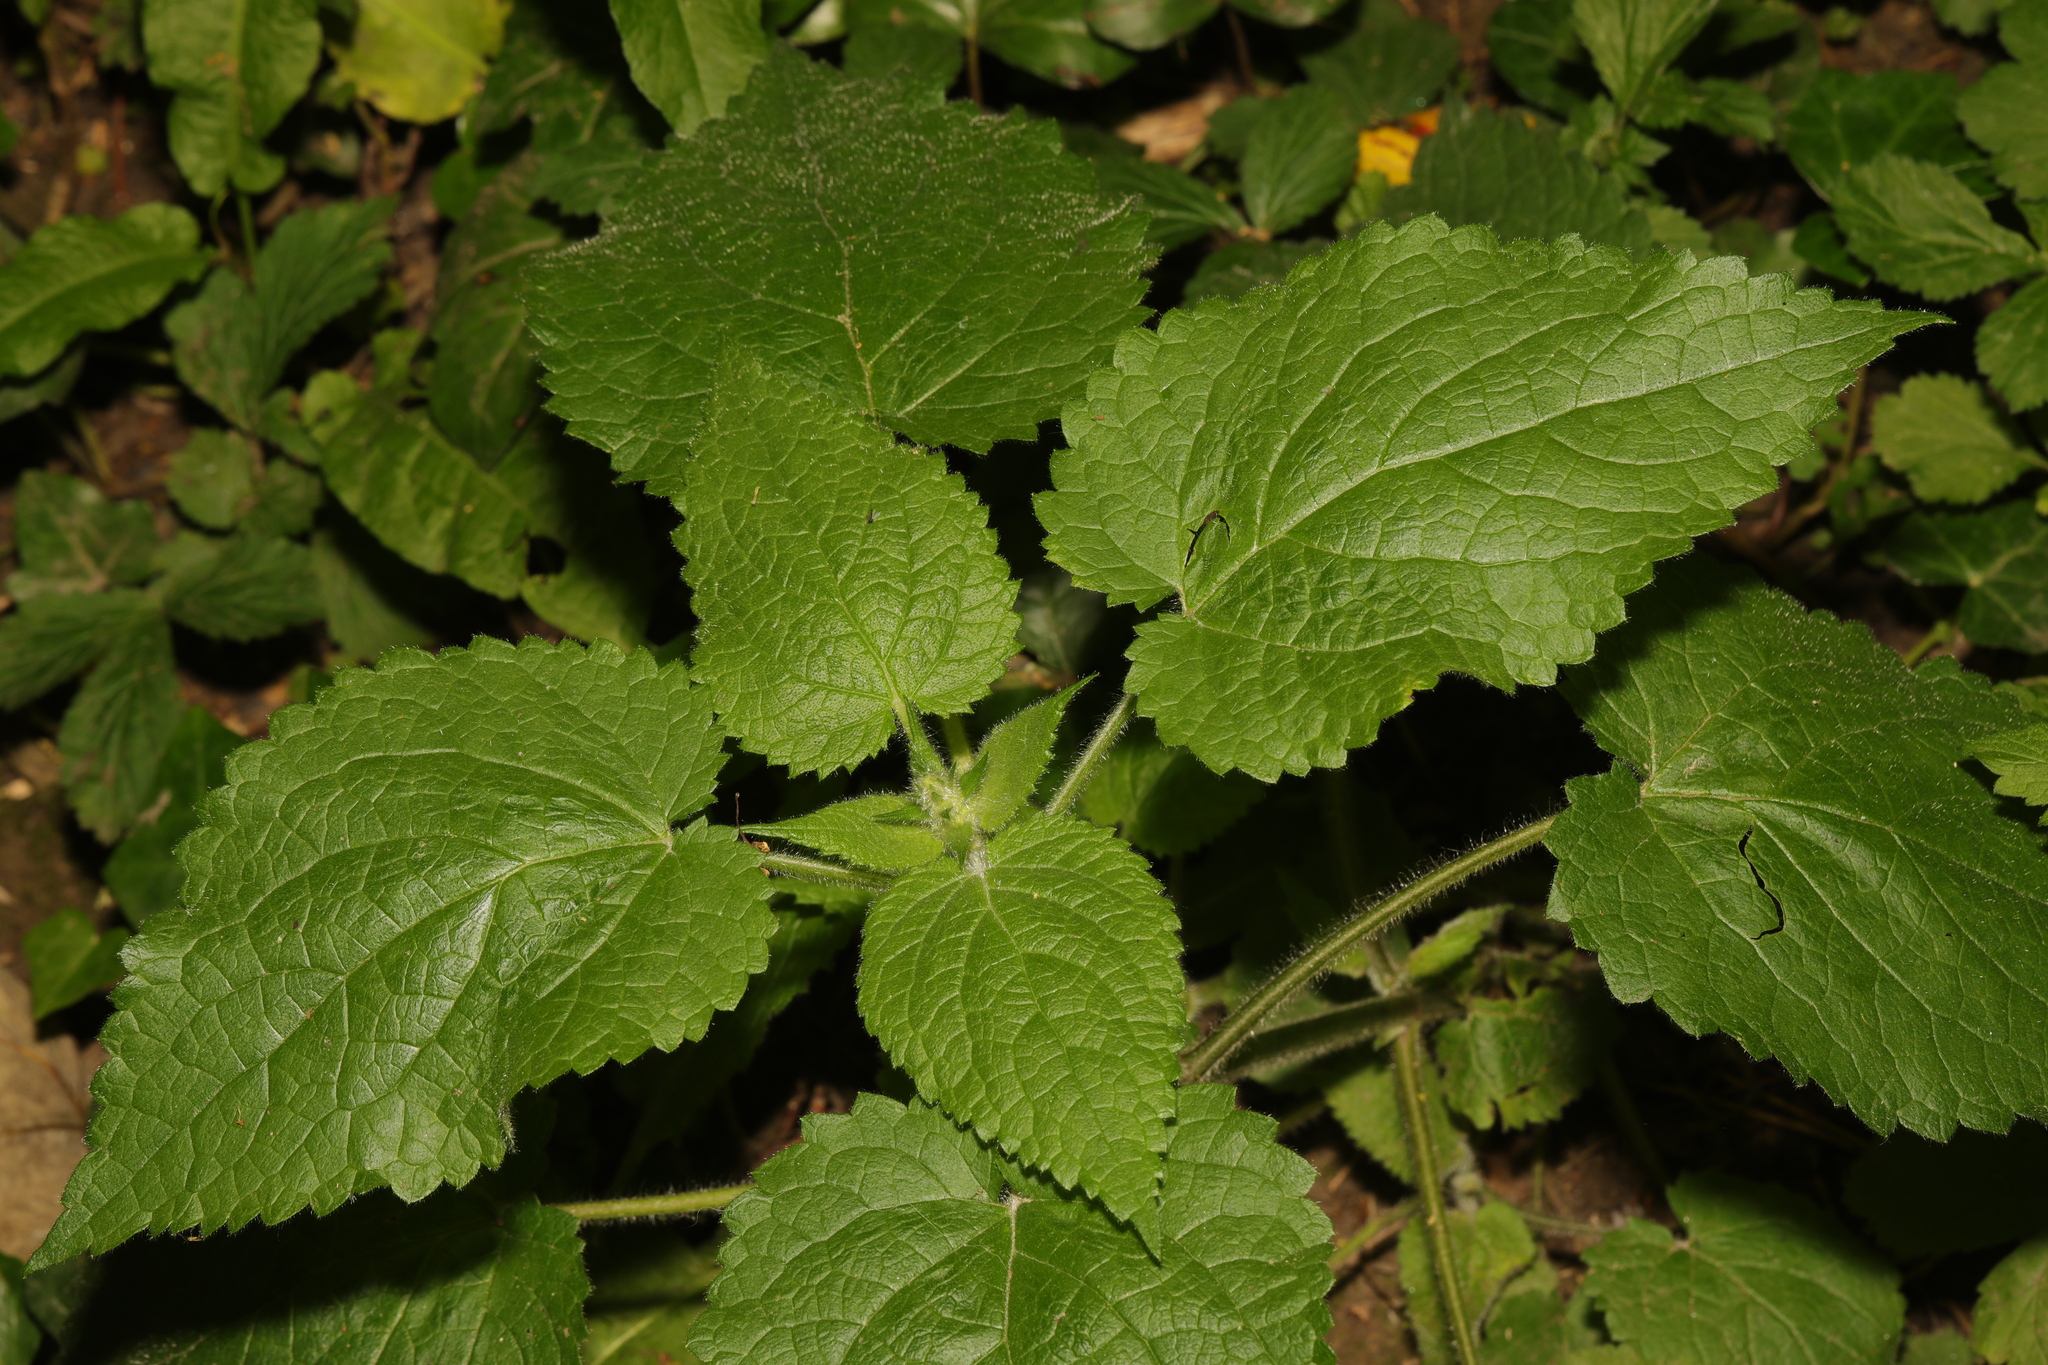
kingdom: Plantae
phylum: Tracheophyta
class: Magnoliopsida
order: Lamiales
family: Lamiaceae
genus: Stachys
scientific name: Stachys sylvatica
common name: Hedge woundwort
